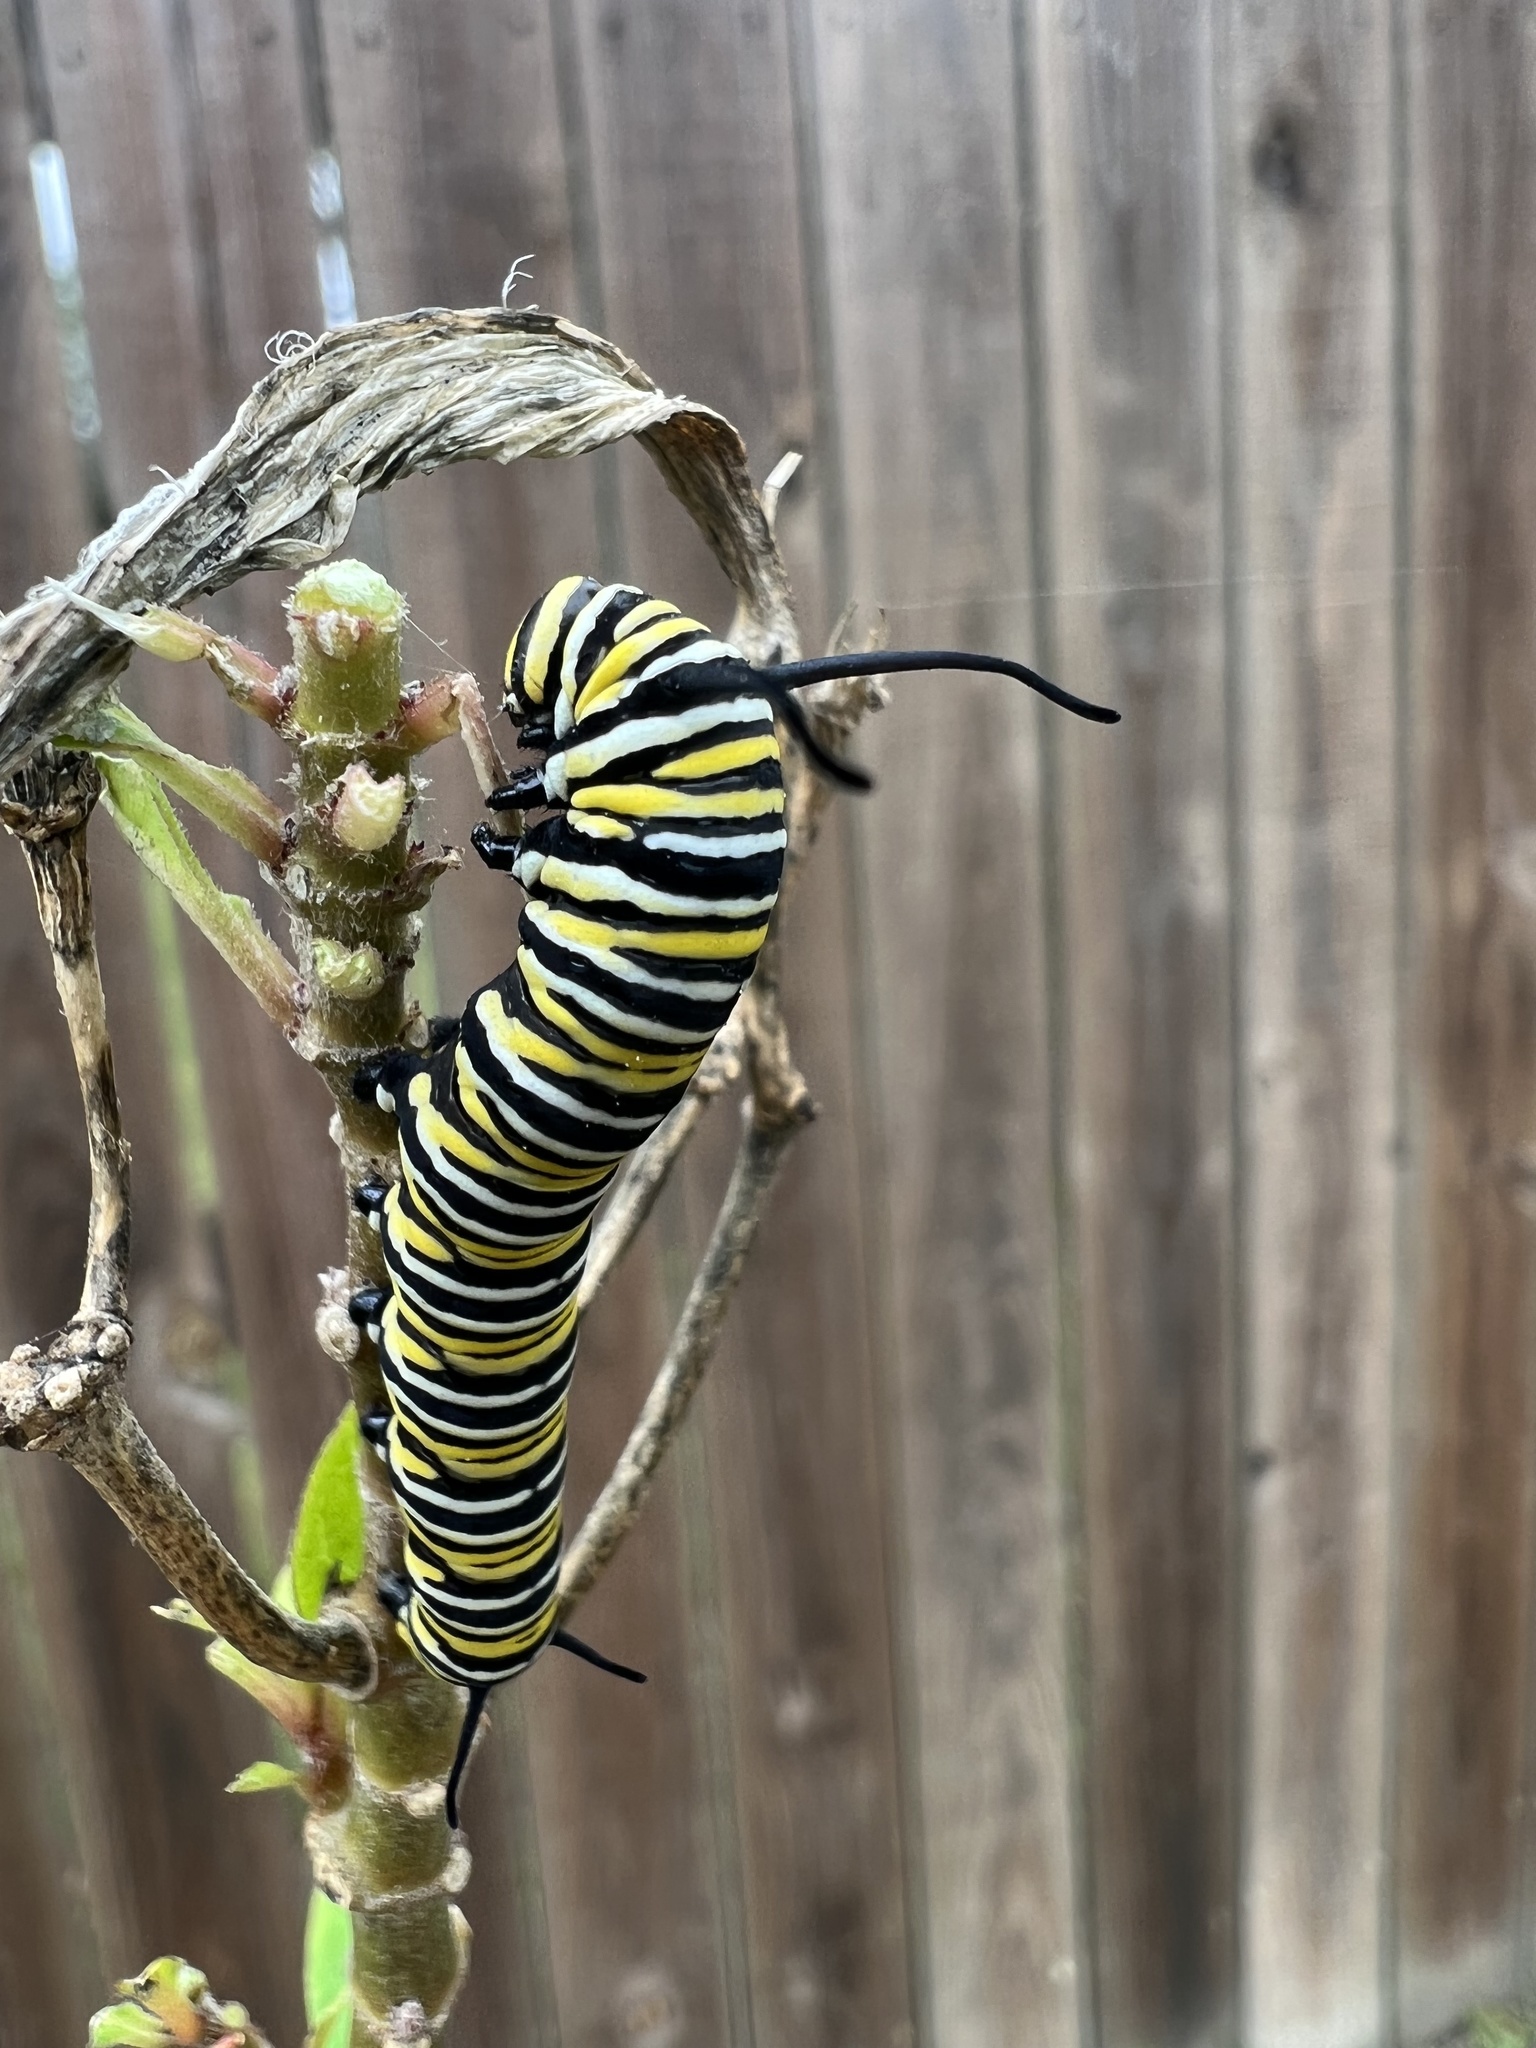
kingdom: Animalia
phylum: Arthropoda
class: Insecta
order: Lepidoptera
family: Nymphalidae
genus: Danaus
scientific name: Danaus plexippus
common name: Monarch
